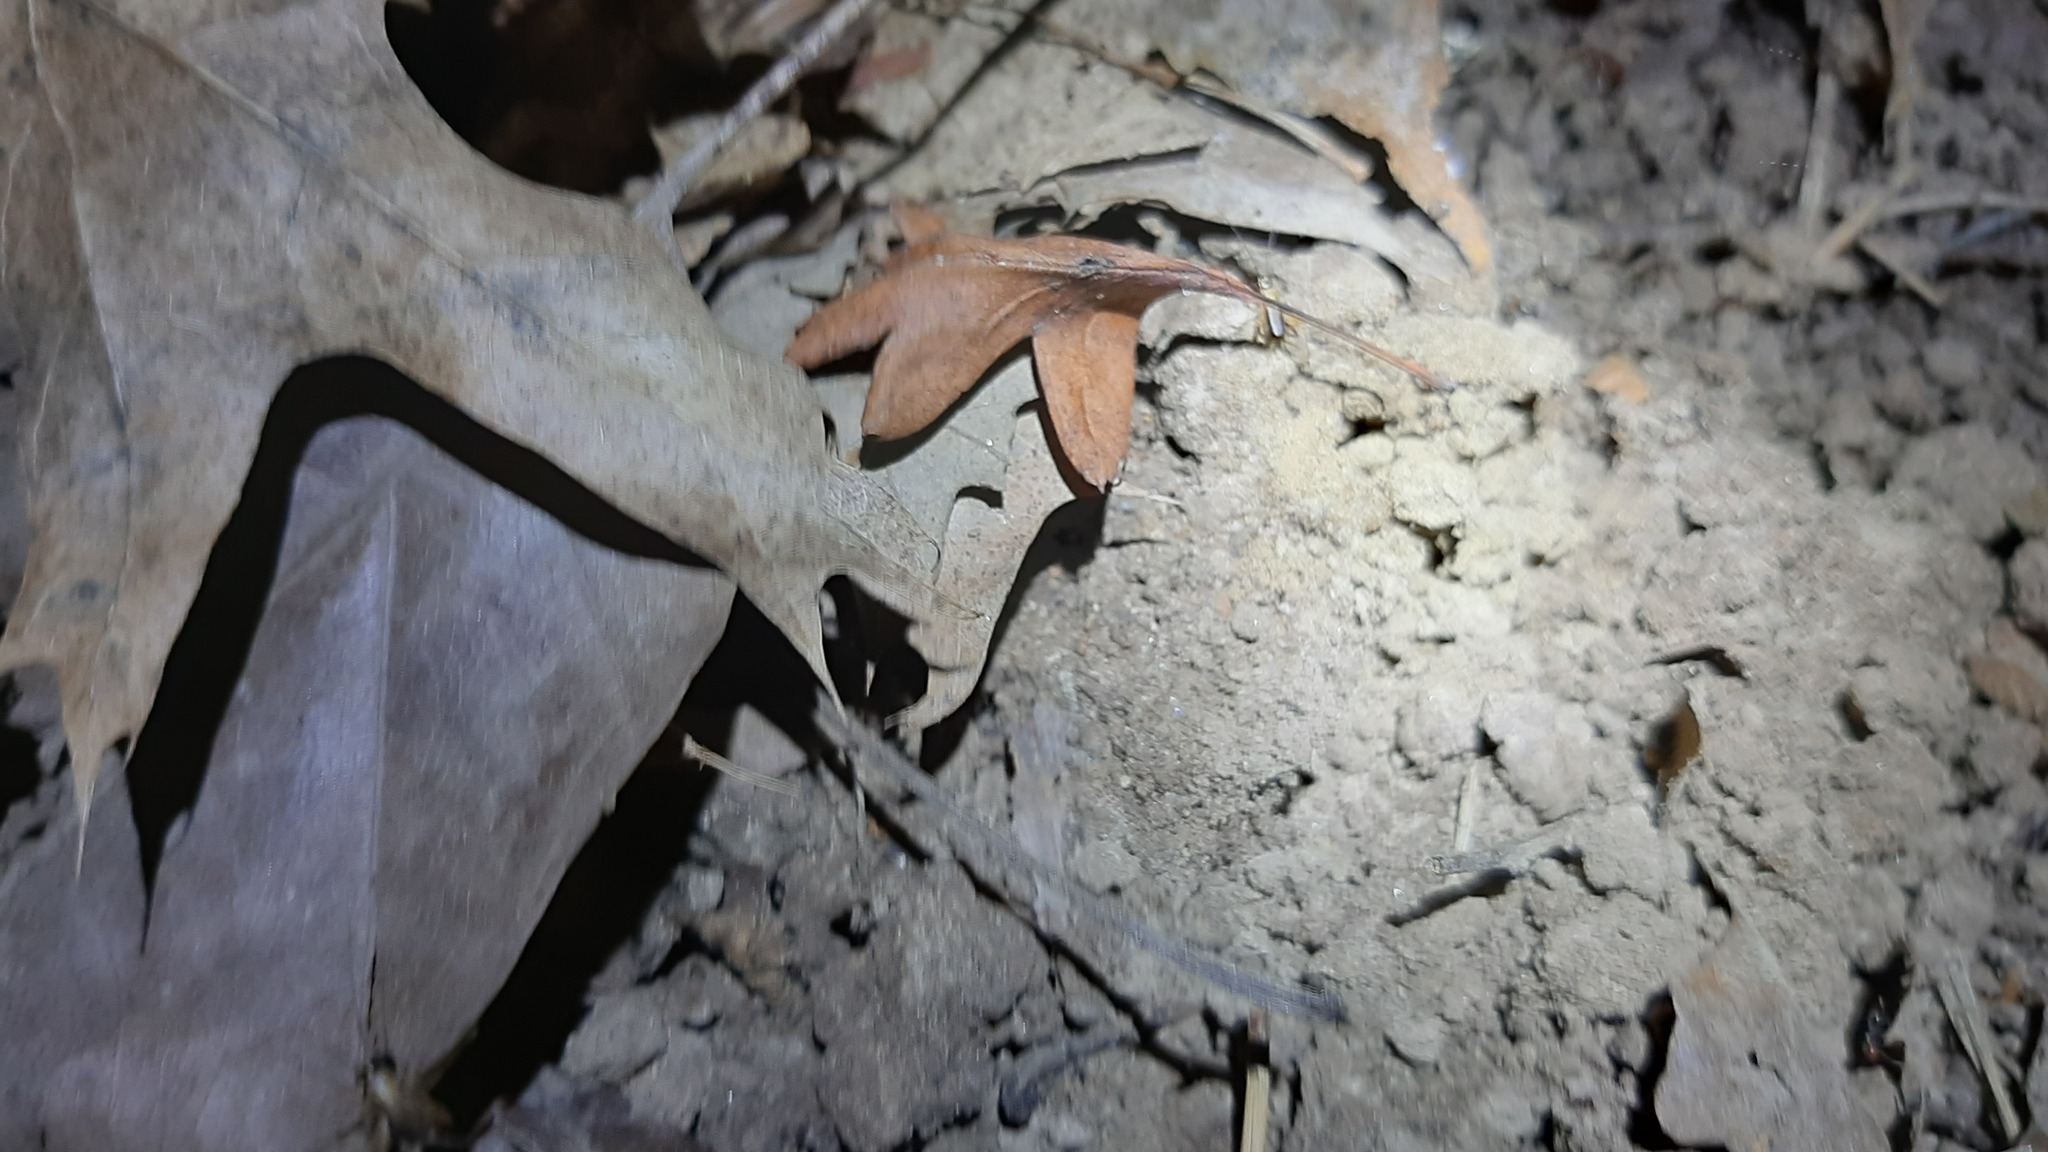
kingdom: Animalia
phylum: Arthropoda
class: Insecta
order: Orthoptera
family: Trigonidiidae
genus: Nemobius
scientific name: Nemobius sylvestris
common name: Wood-cricket
